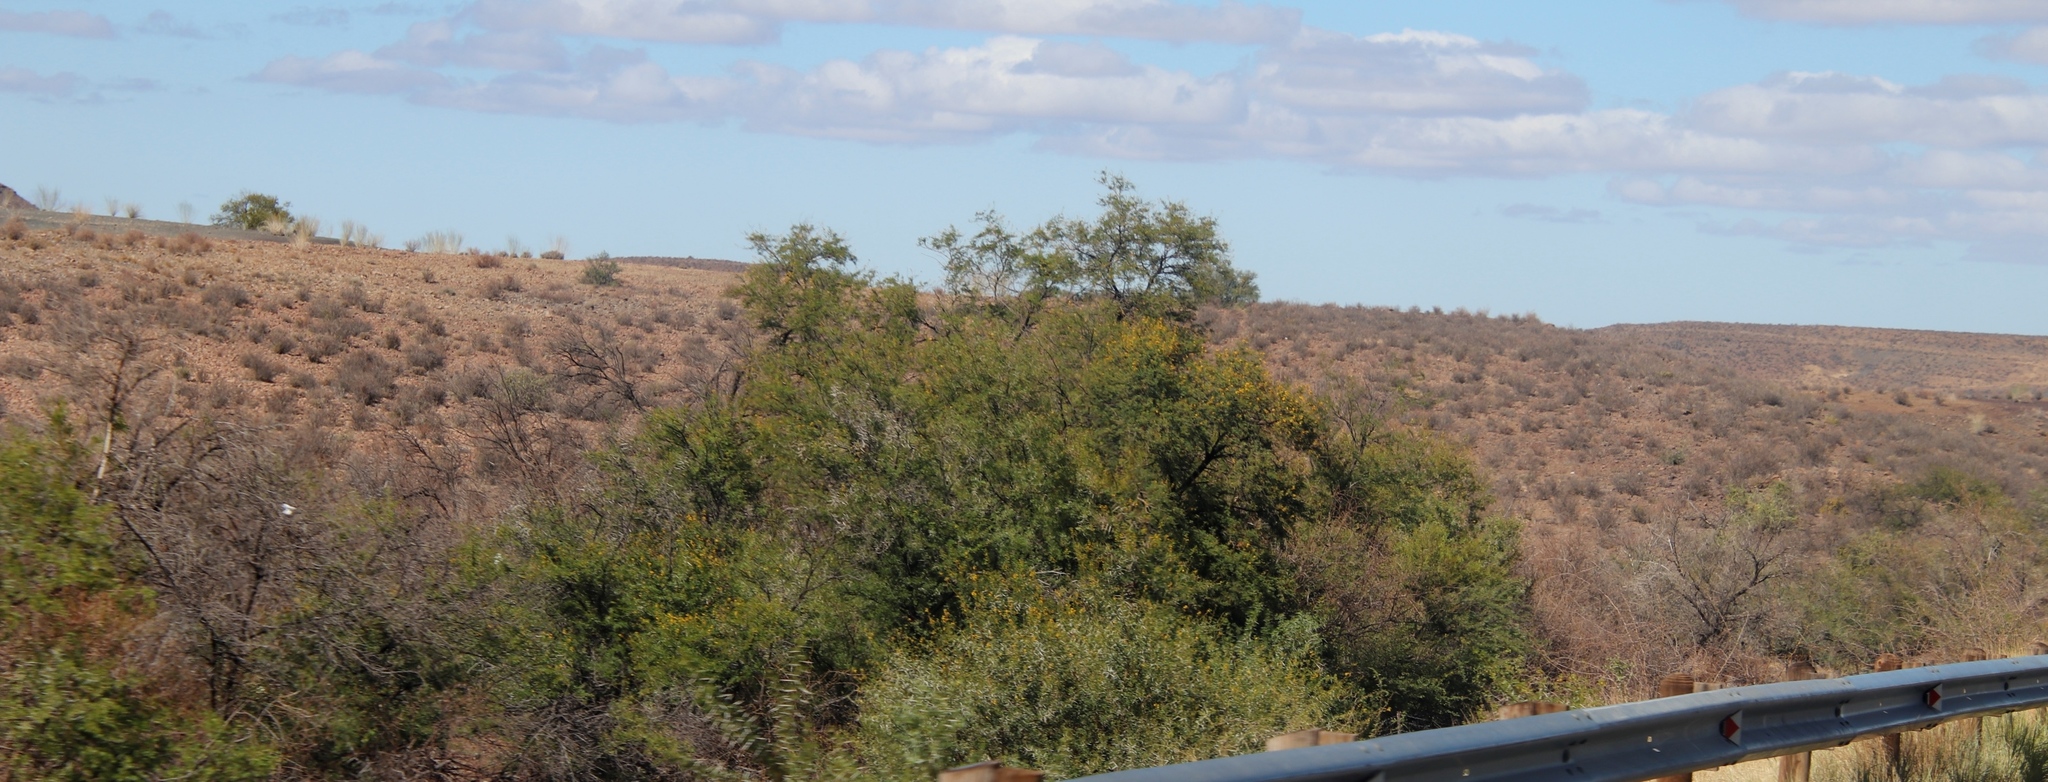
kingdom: Plantae
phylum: Tracheophyta
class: Magnoliopsida
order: Fabales
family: Fabaceae
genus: Vachellia
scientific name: Vachellia karroo
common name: Sweet thorn
